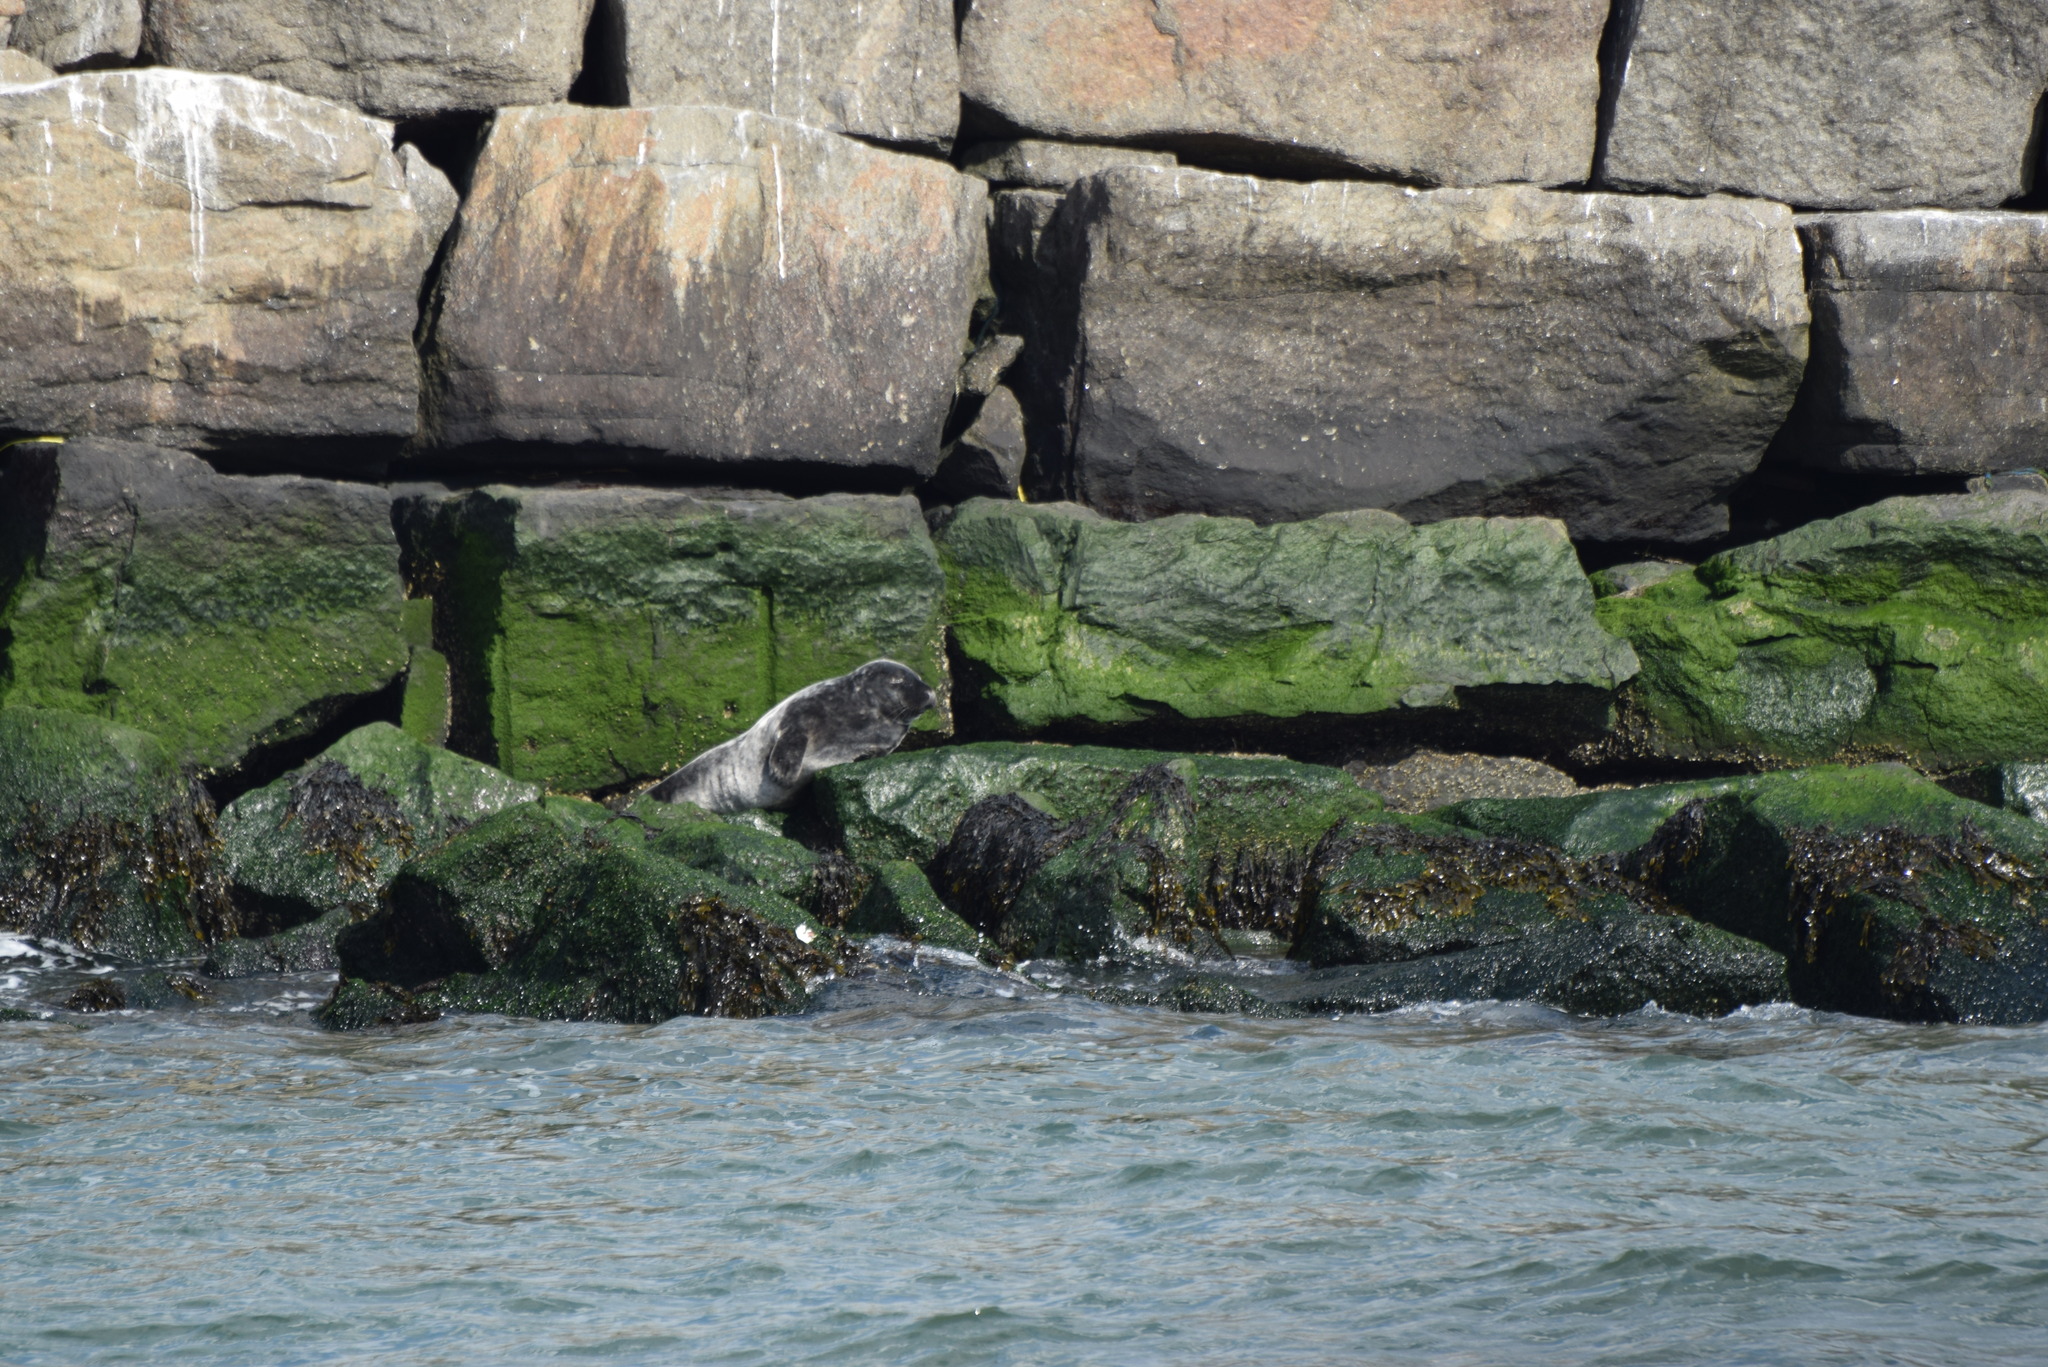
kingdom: Animalia
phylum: Chordata
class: Mammalia
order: Carnivora
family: Phocidae
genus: Halichoerus
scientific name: Halichoerus grypus
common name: Grey seal
